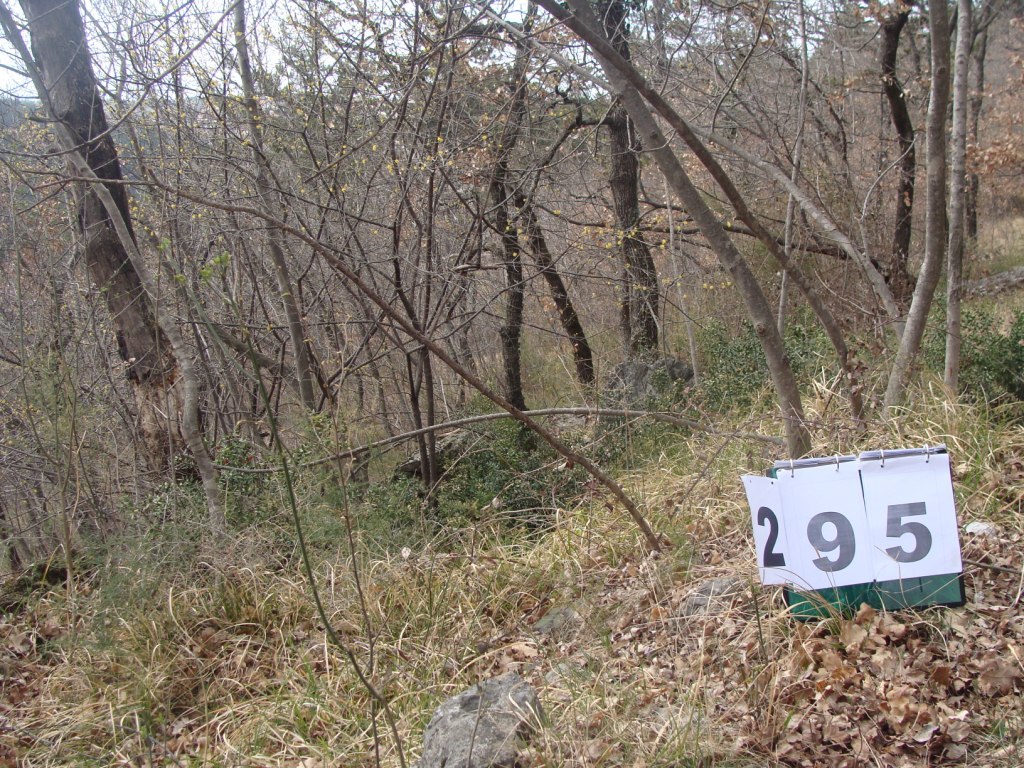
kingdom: Plantae
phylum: Tracheophyta
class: Magnoliopsida
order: Cornales
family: Cornaceae
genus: Cornus
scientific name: Cornus mas
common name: Cornelian-cherry
